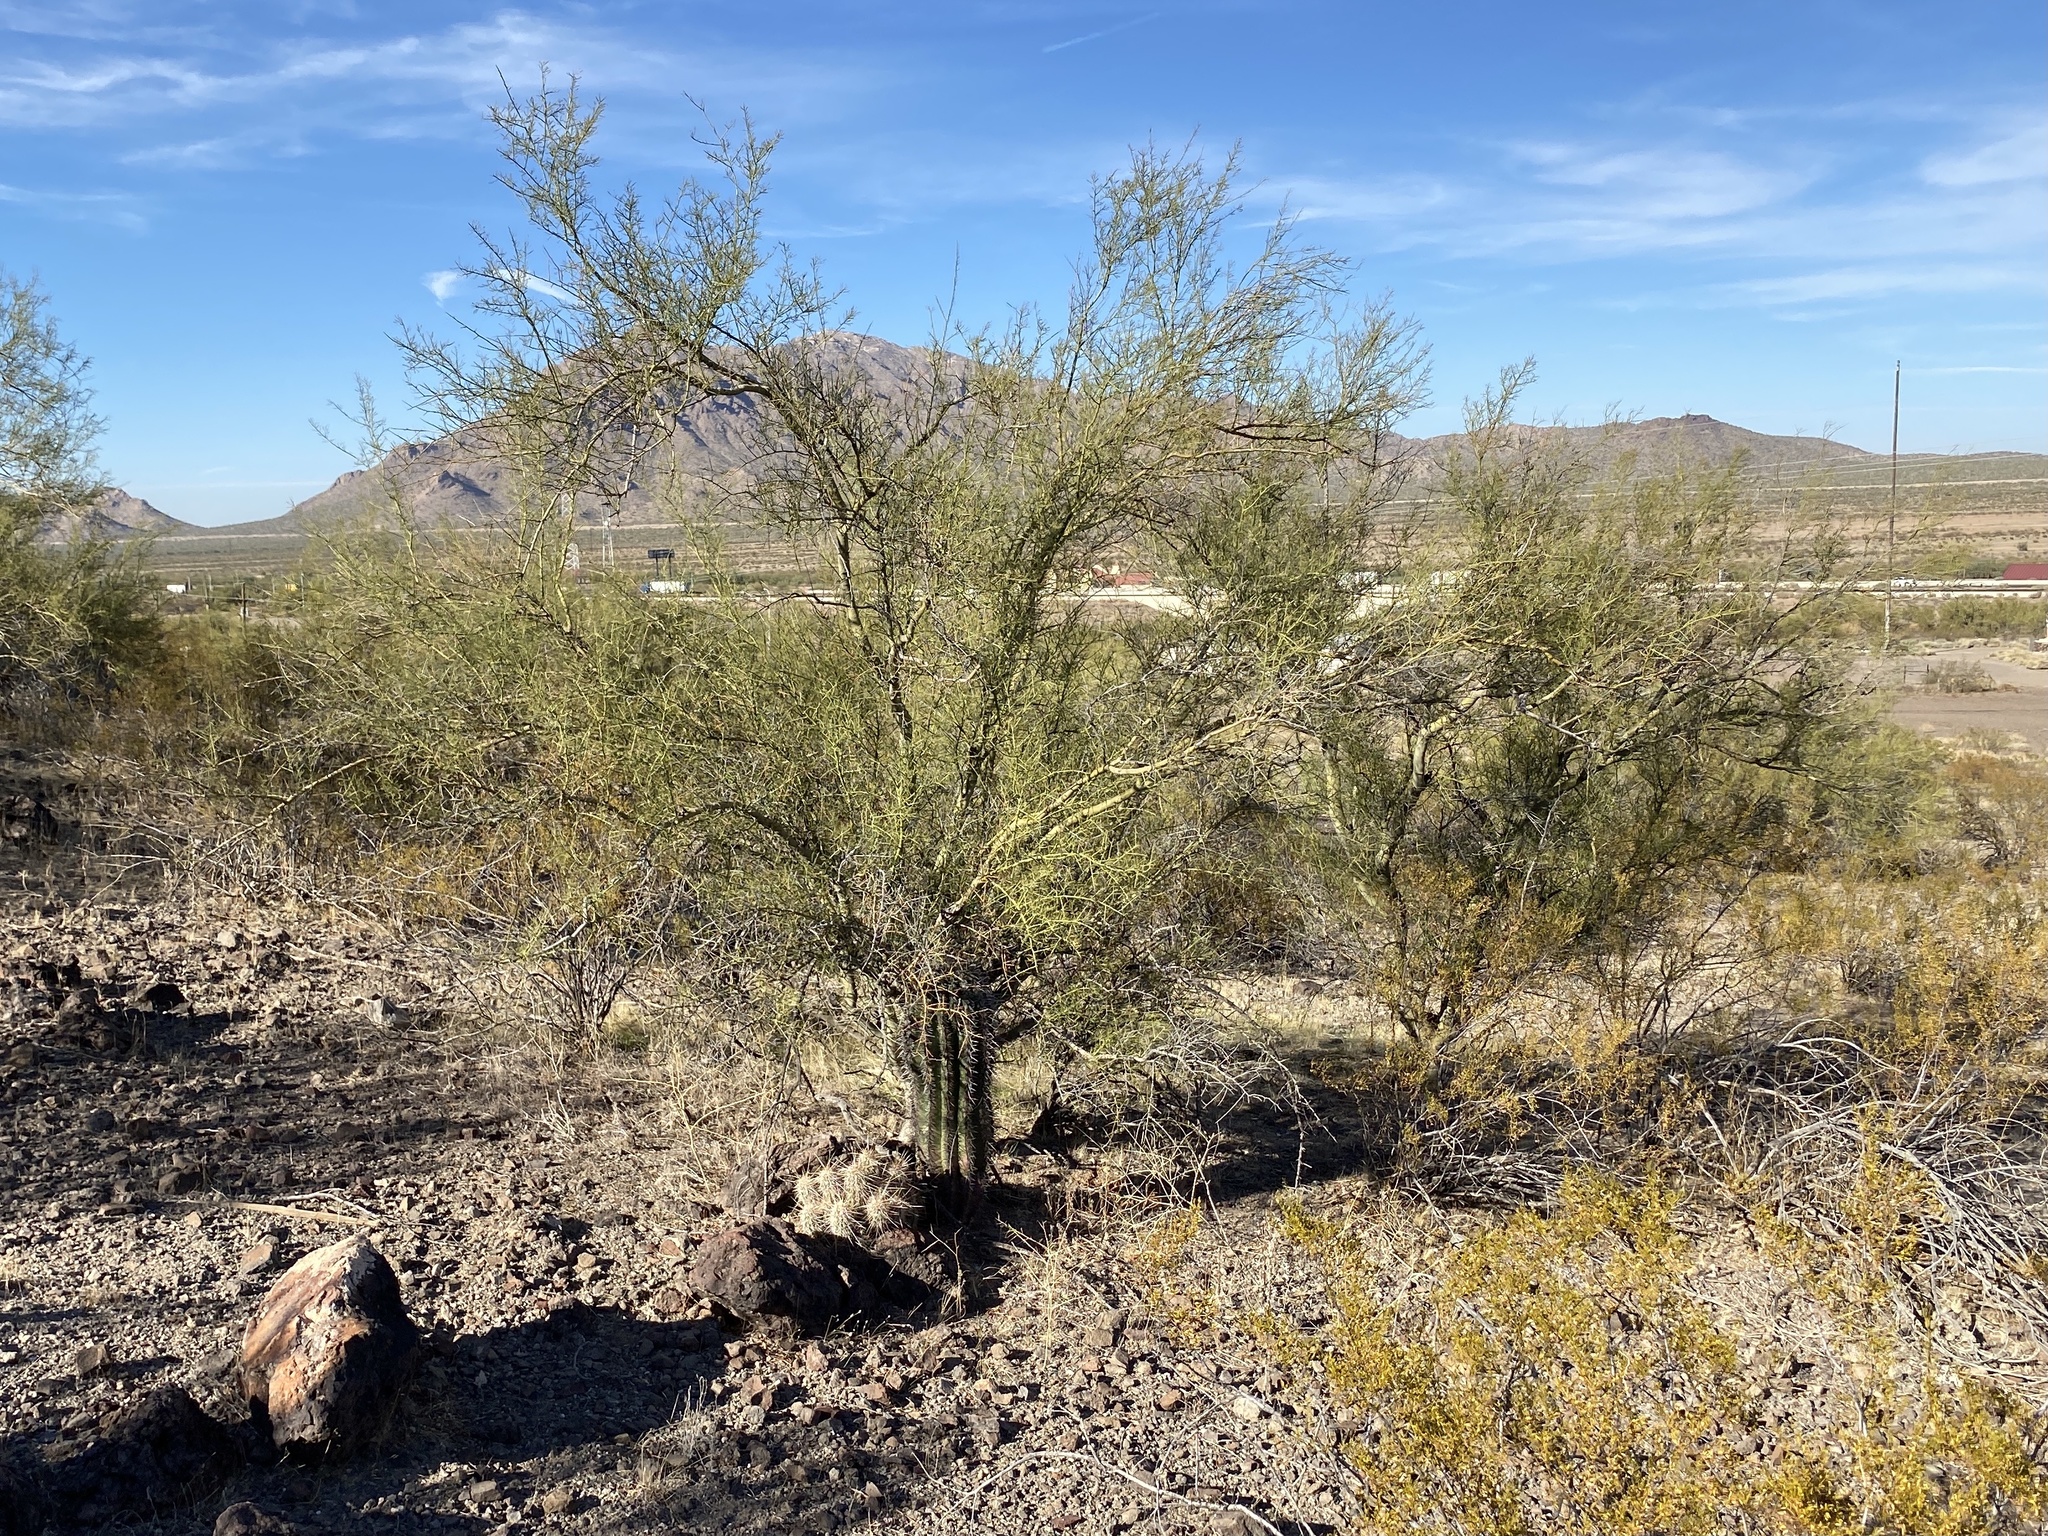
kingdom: Plantae
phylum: Tracheophyta
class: Magnoliopsida
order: Caryophyllales
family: Cactaceae
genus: Echinocereus
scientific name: Echinocereus engelmannii
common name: Engelmann's hedgehog cactus
